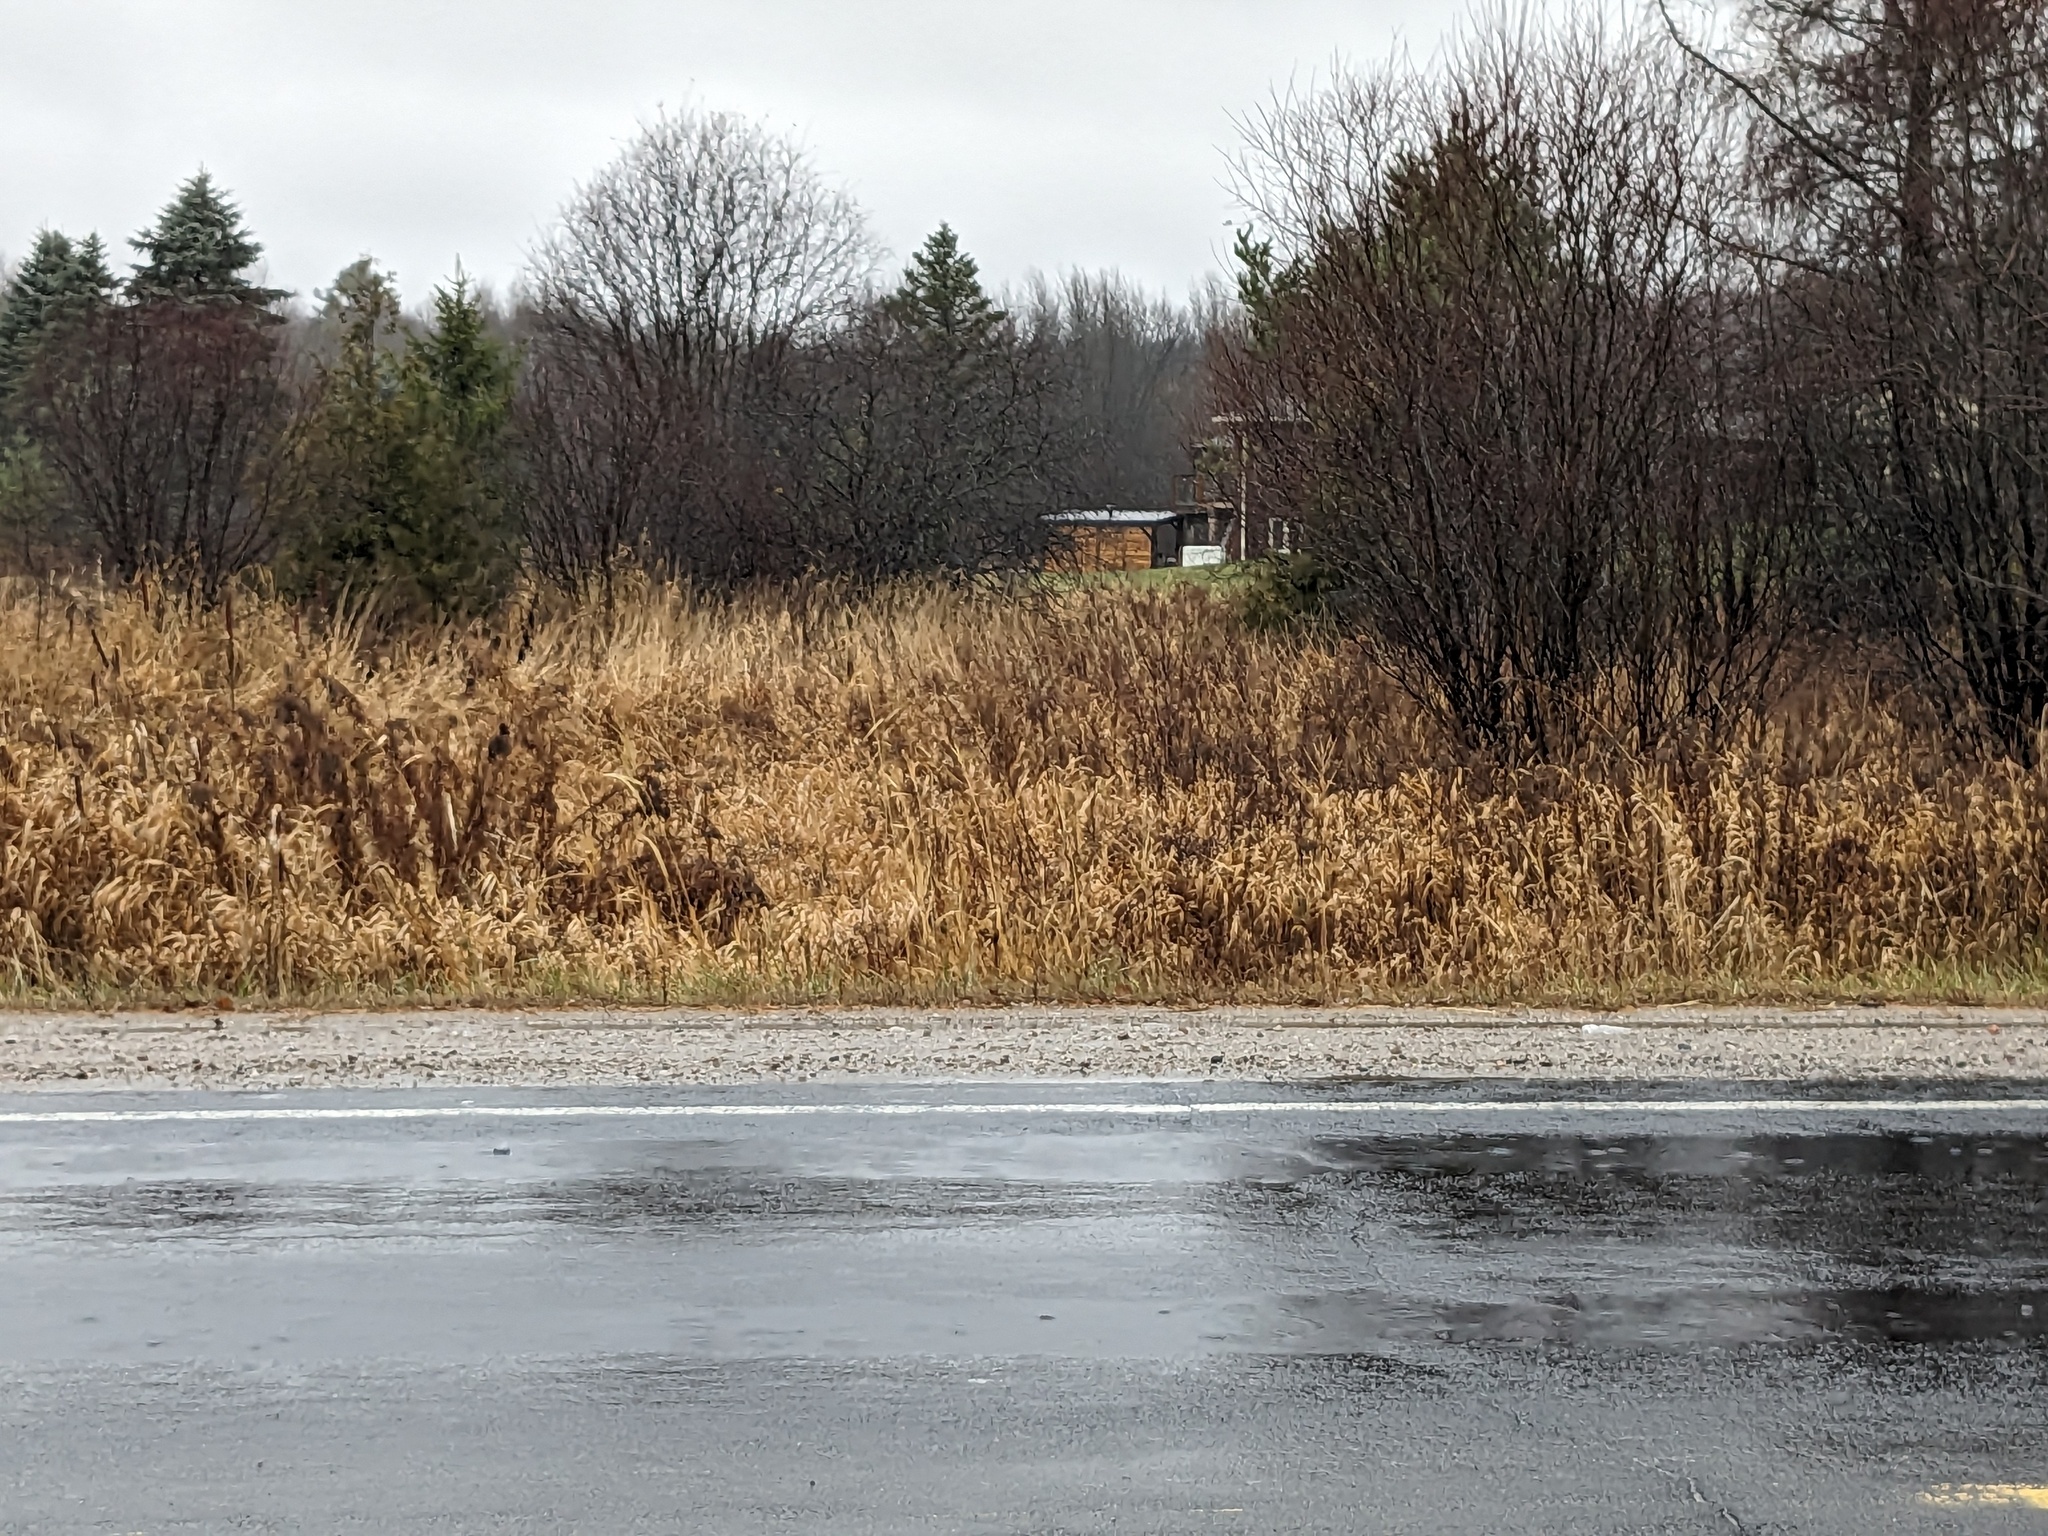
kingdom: Plantae
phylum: Tracheophyta
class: Liliopsida
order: Poales
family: Poaceae
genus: Phragmites
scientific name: Phragmites australis
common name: Common reed
